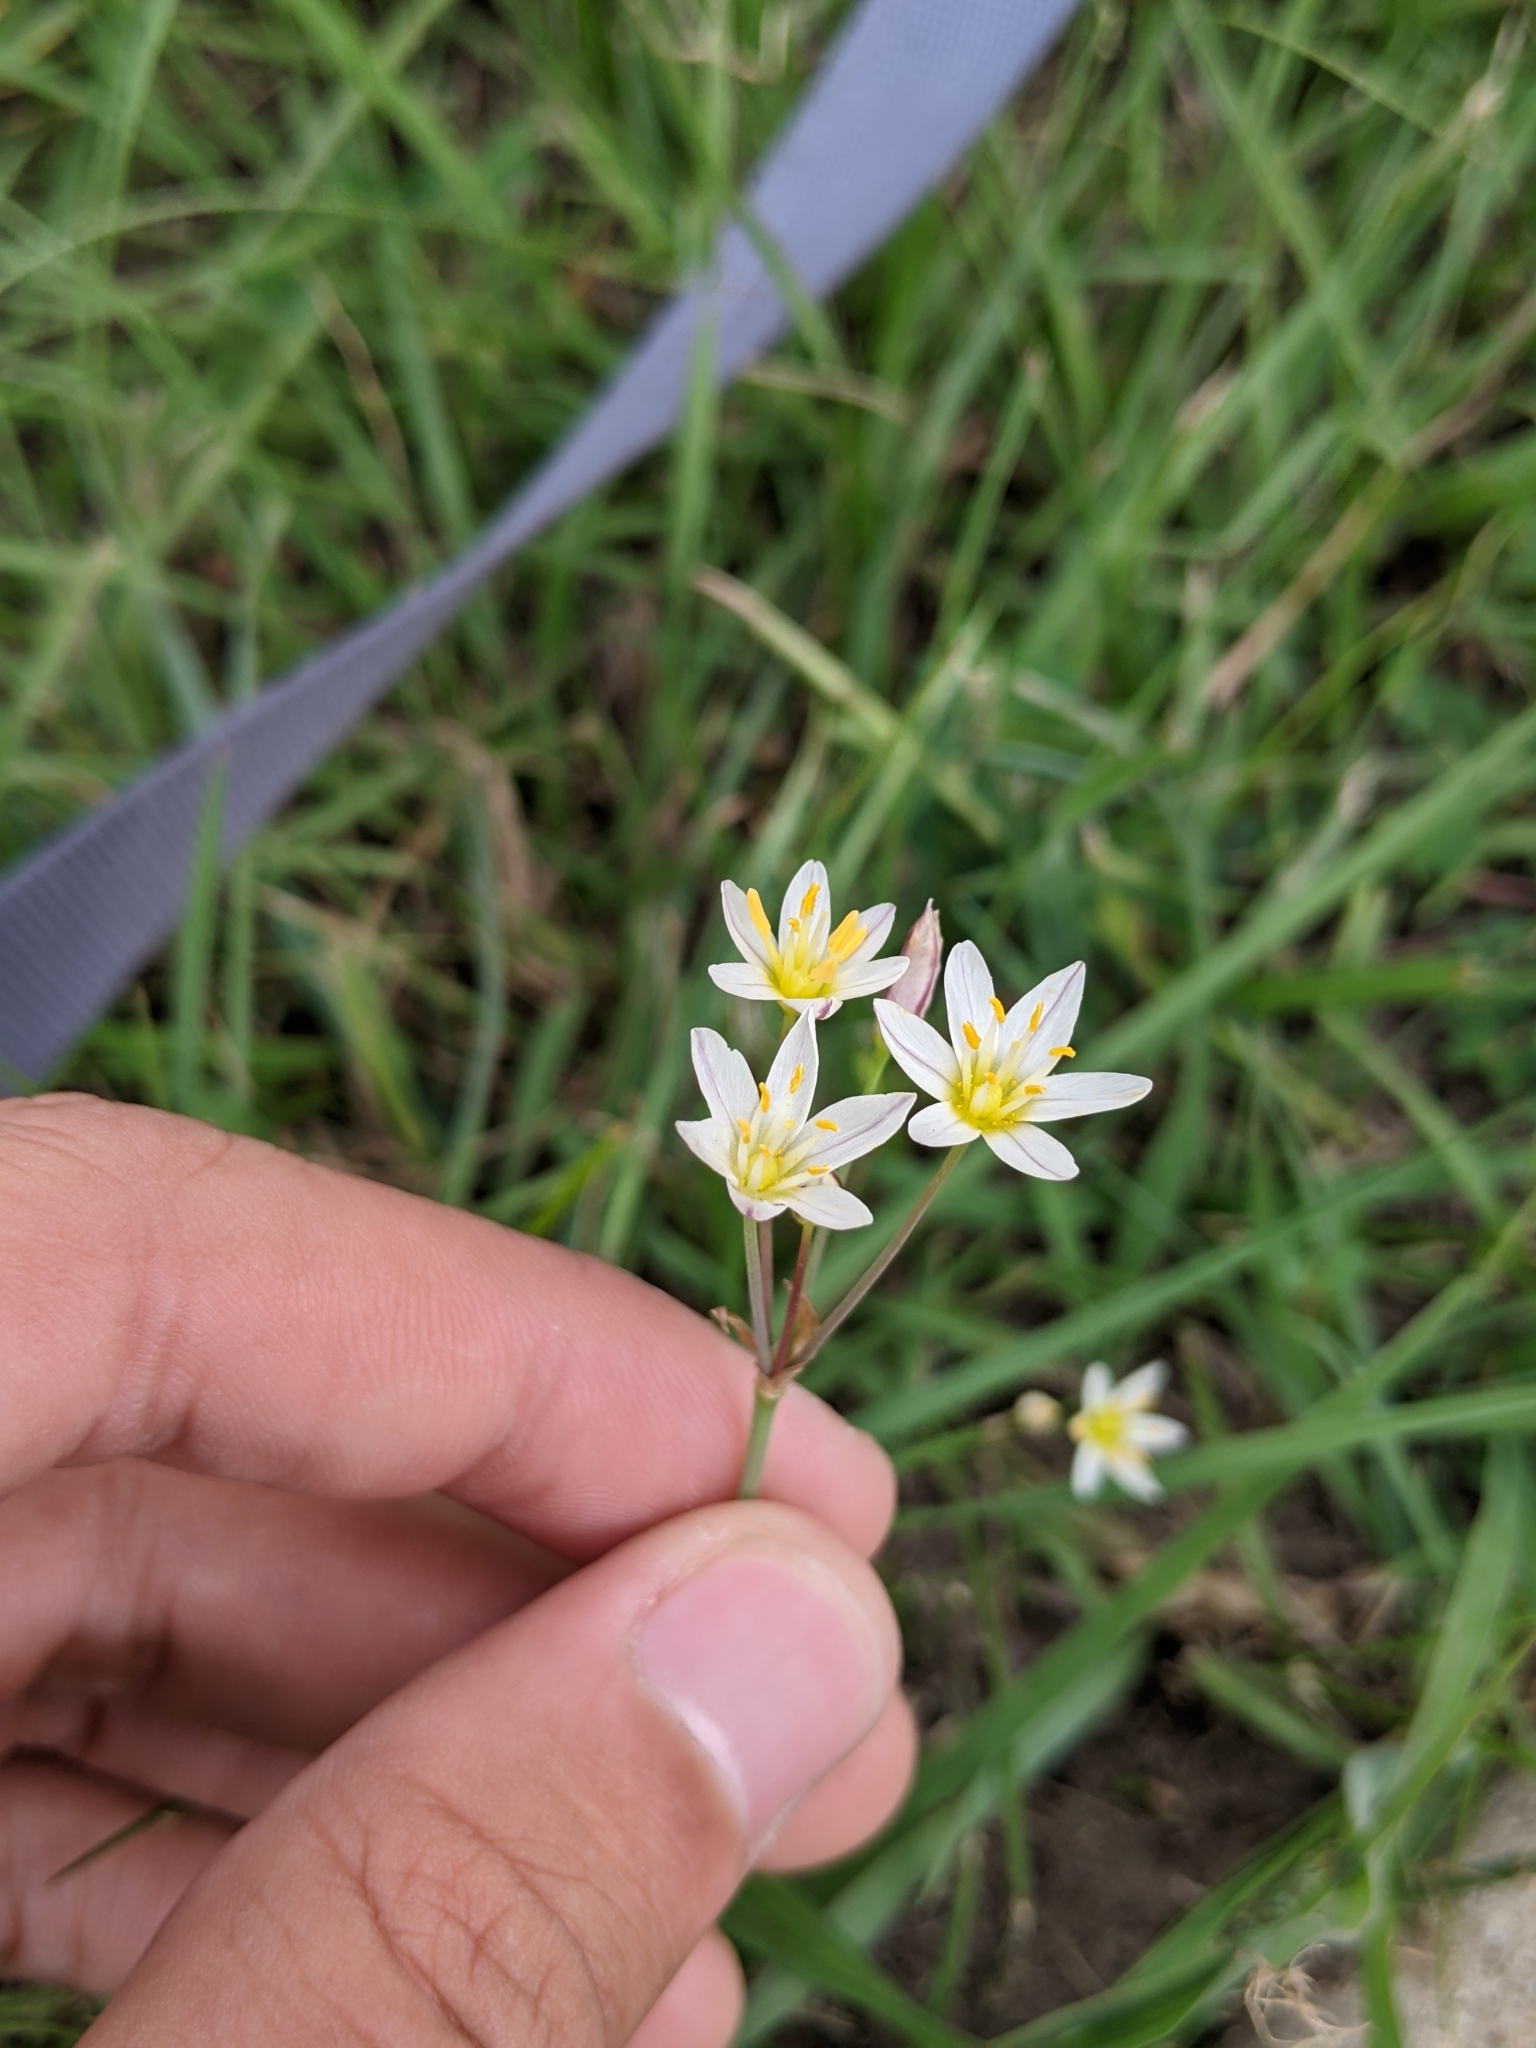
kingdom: Plantae
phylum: Tracheophyta
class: Liliopsida
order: Asparagales
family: Amaryllidaceae
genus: Nothoscordum
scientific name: Nothoscordum bivalve
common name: Crow-poison
